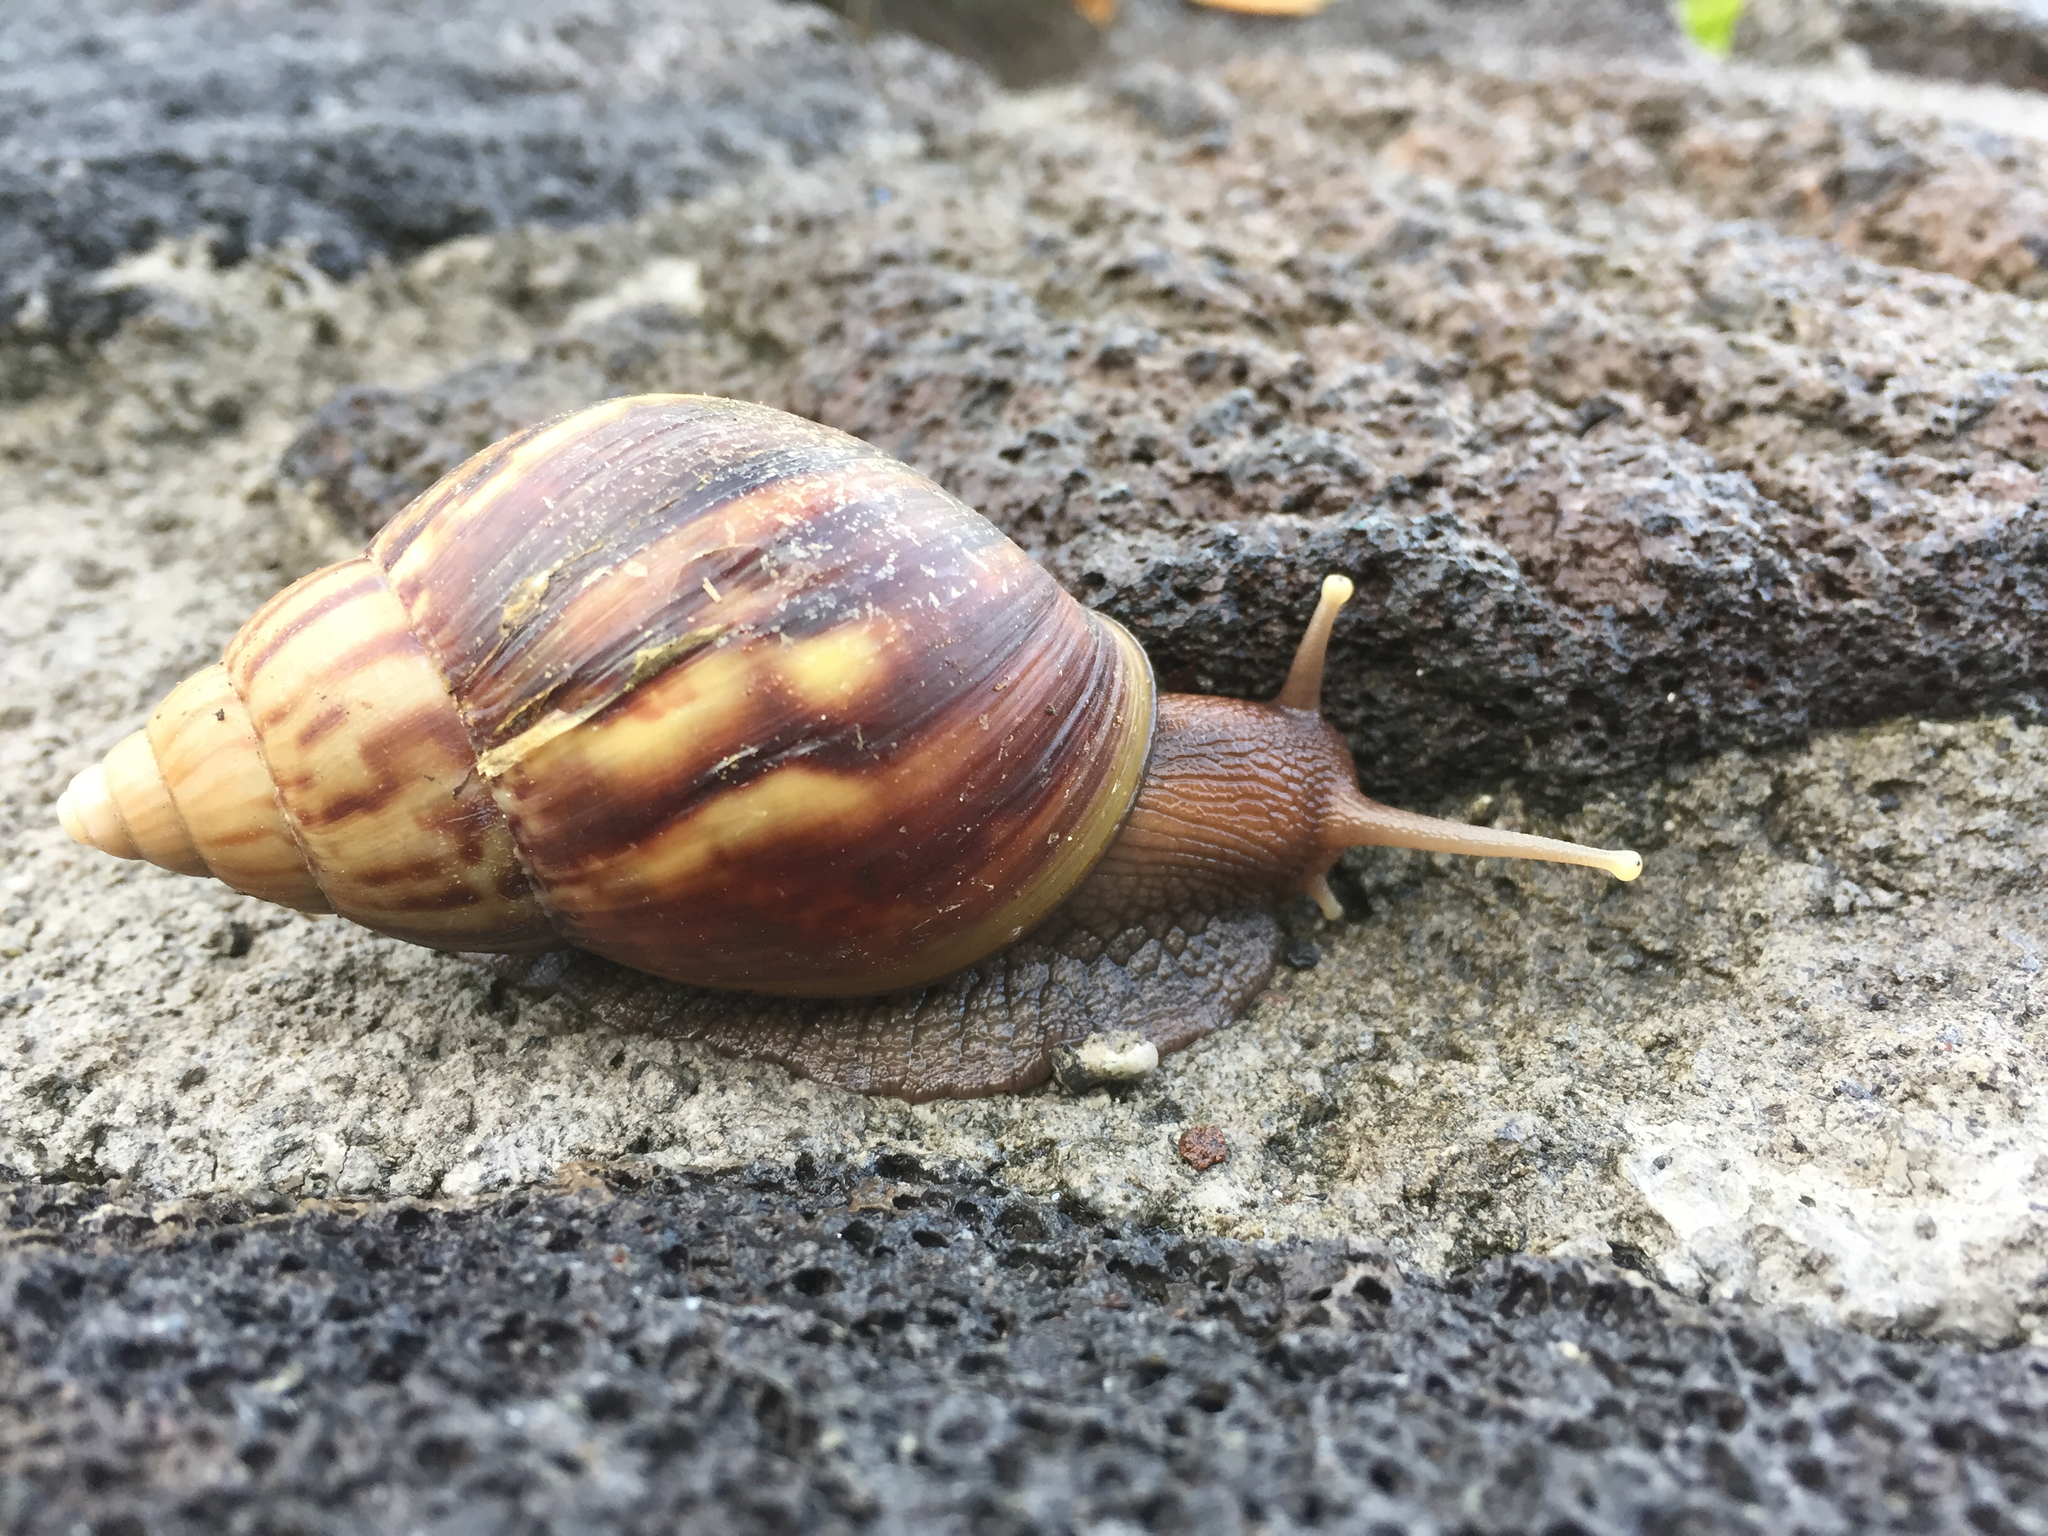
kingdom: Animalia
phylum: Mollusca
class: Gastropoda
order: Stylommatophora
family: Achatinidae
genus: Lissachatina
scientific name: Lissachatina fulica
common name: Giant african snail
